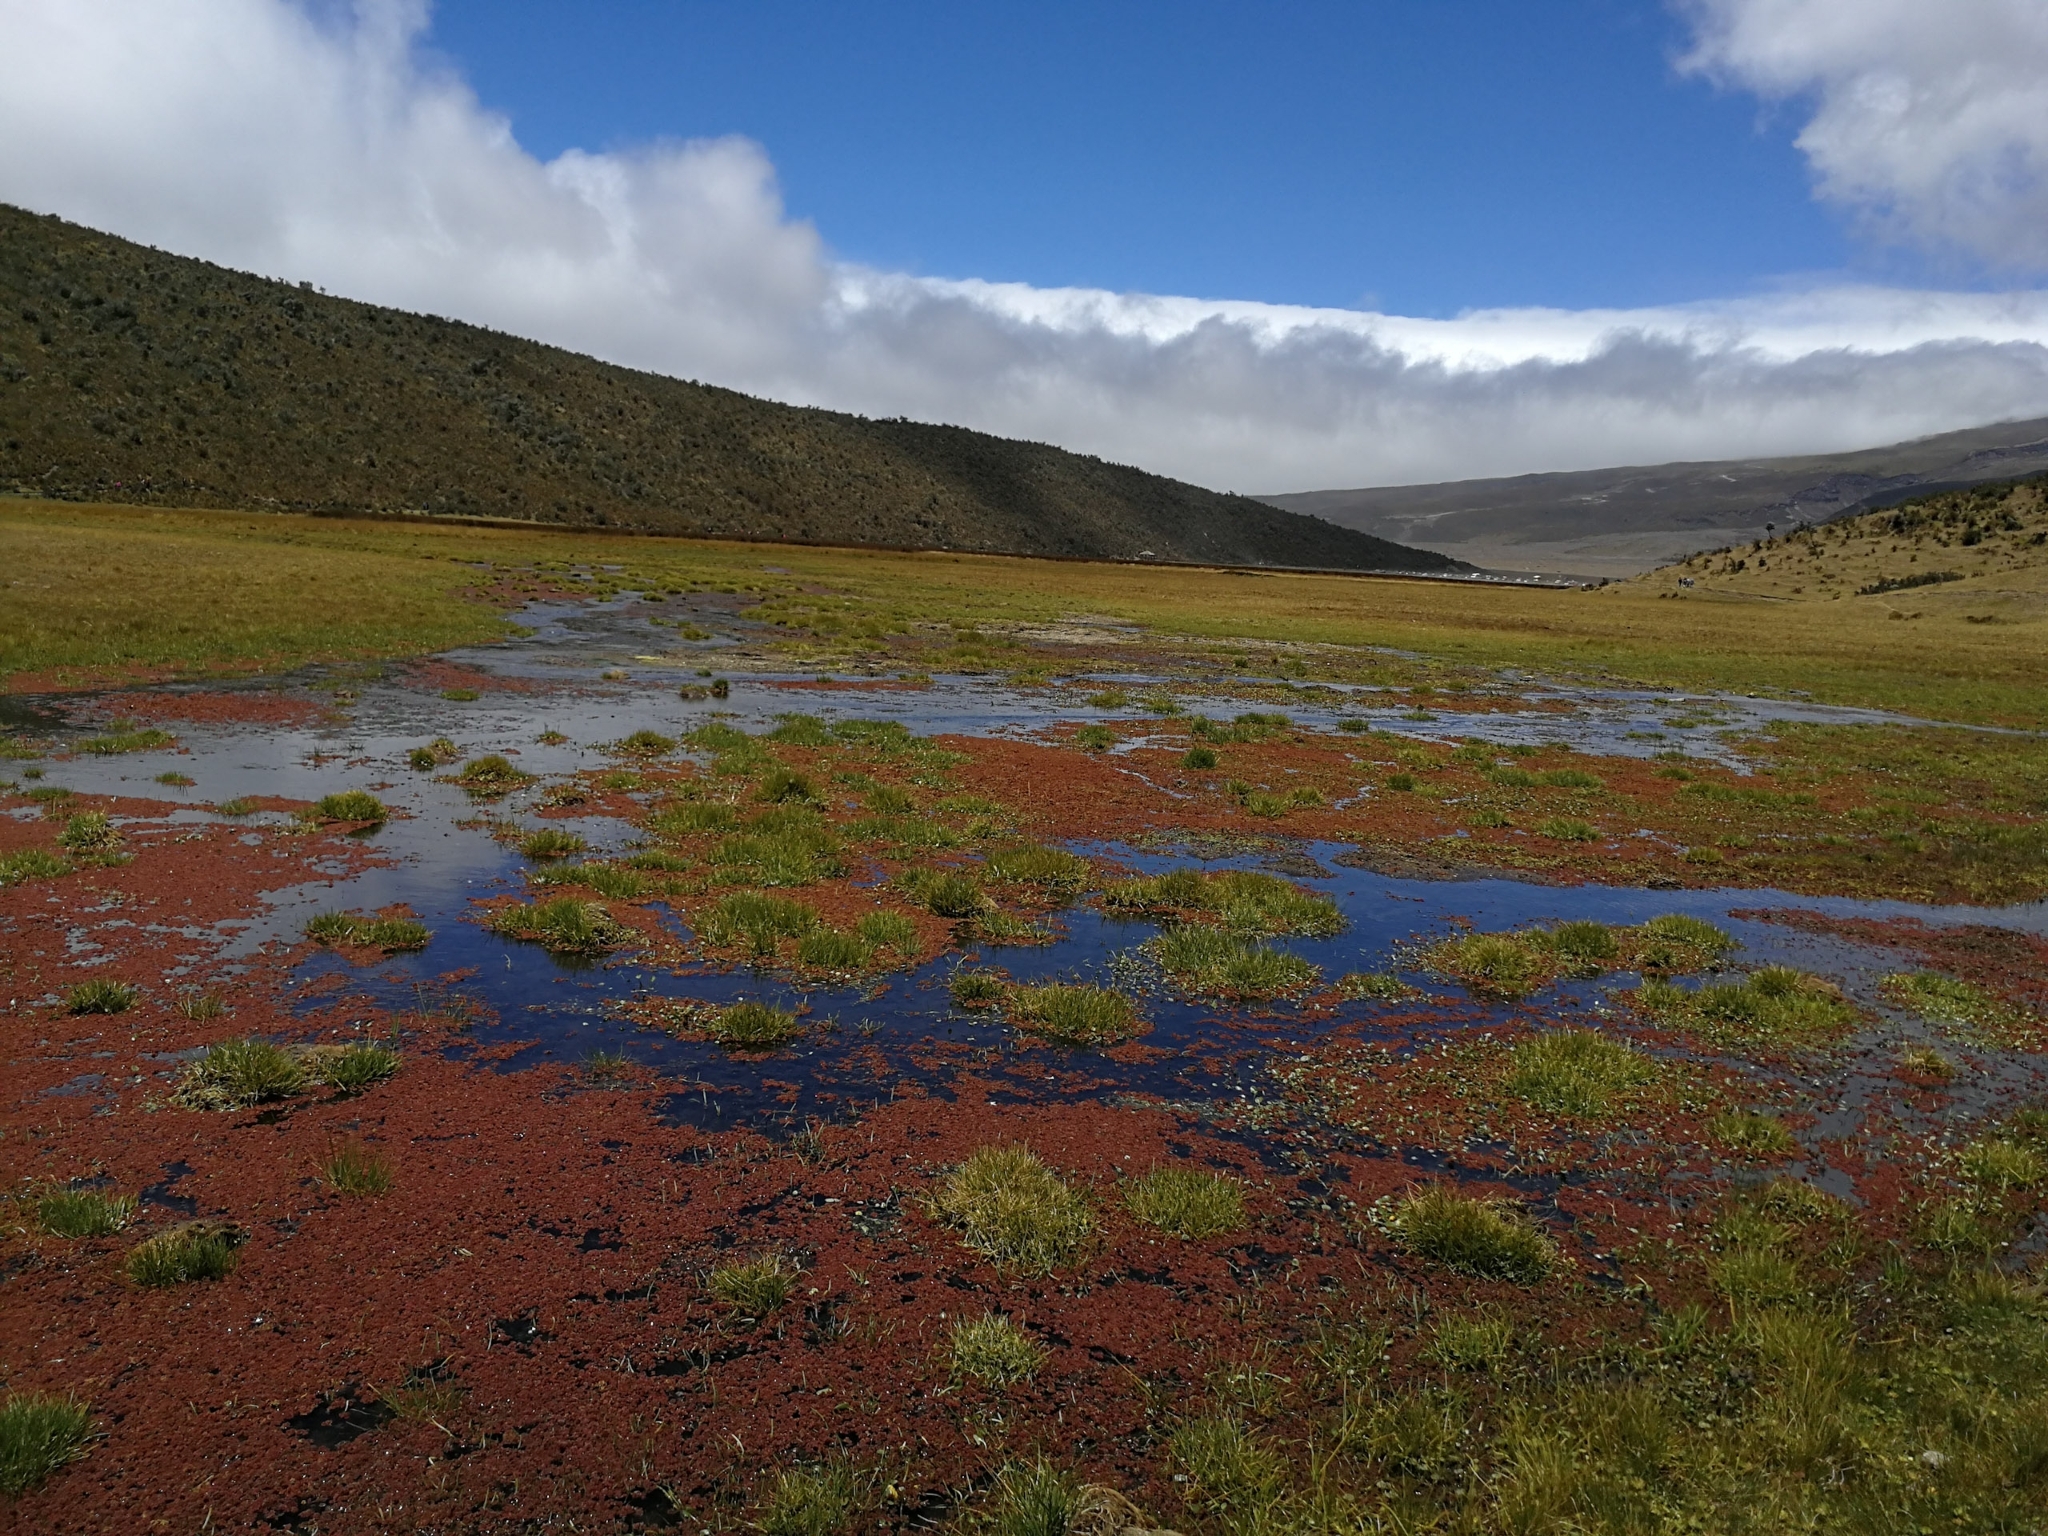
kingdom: Plantae
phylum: Tracheophyta
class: Polypodiopsida
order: Salviniales
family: Salviniaceae
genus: Azolla
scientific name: Azolla filiculoides
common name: Water fern
